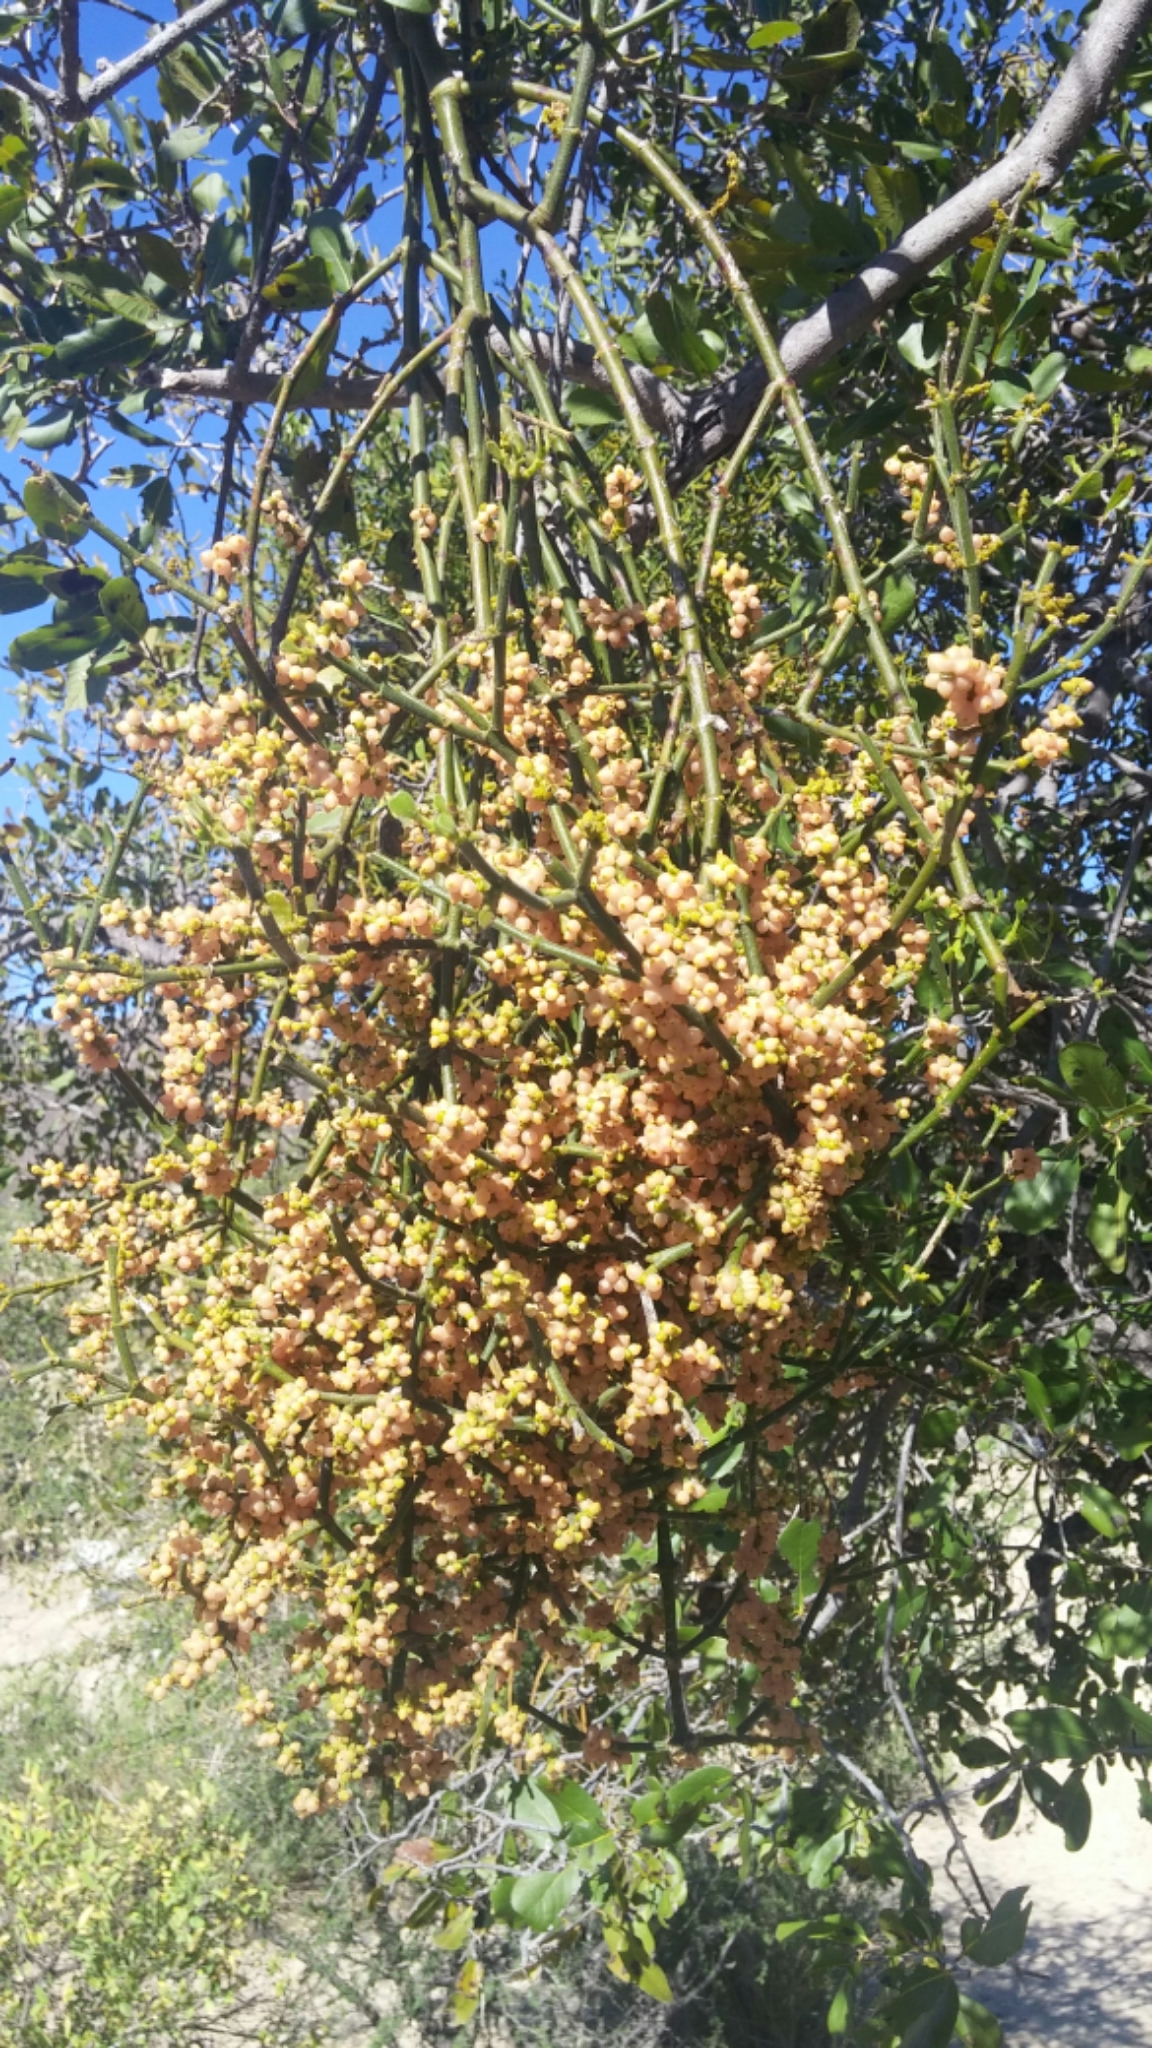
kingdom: Plantae
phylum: Tracheophyta
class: Magnoliopsida
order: Santalales
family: Viscaceae
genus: Phoradendron
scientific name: Phoradendron brachystachyum
